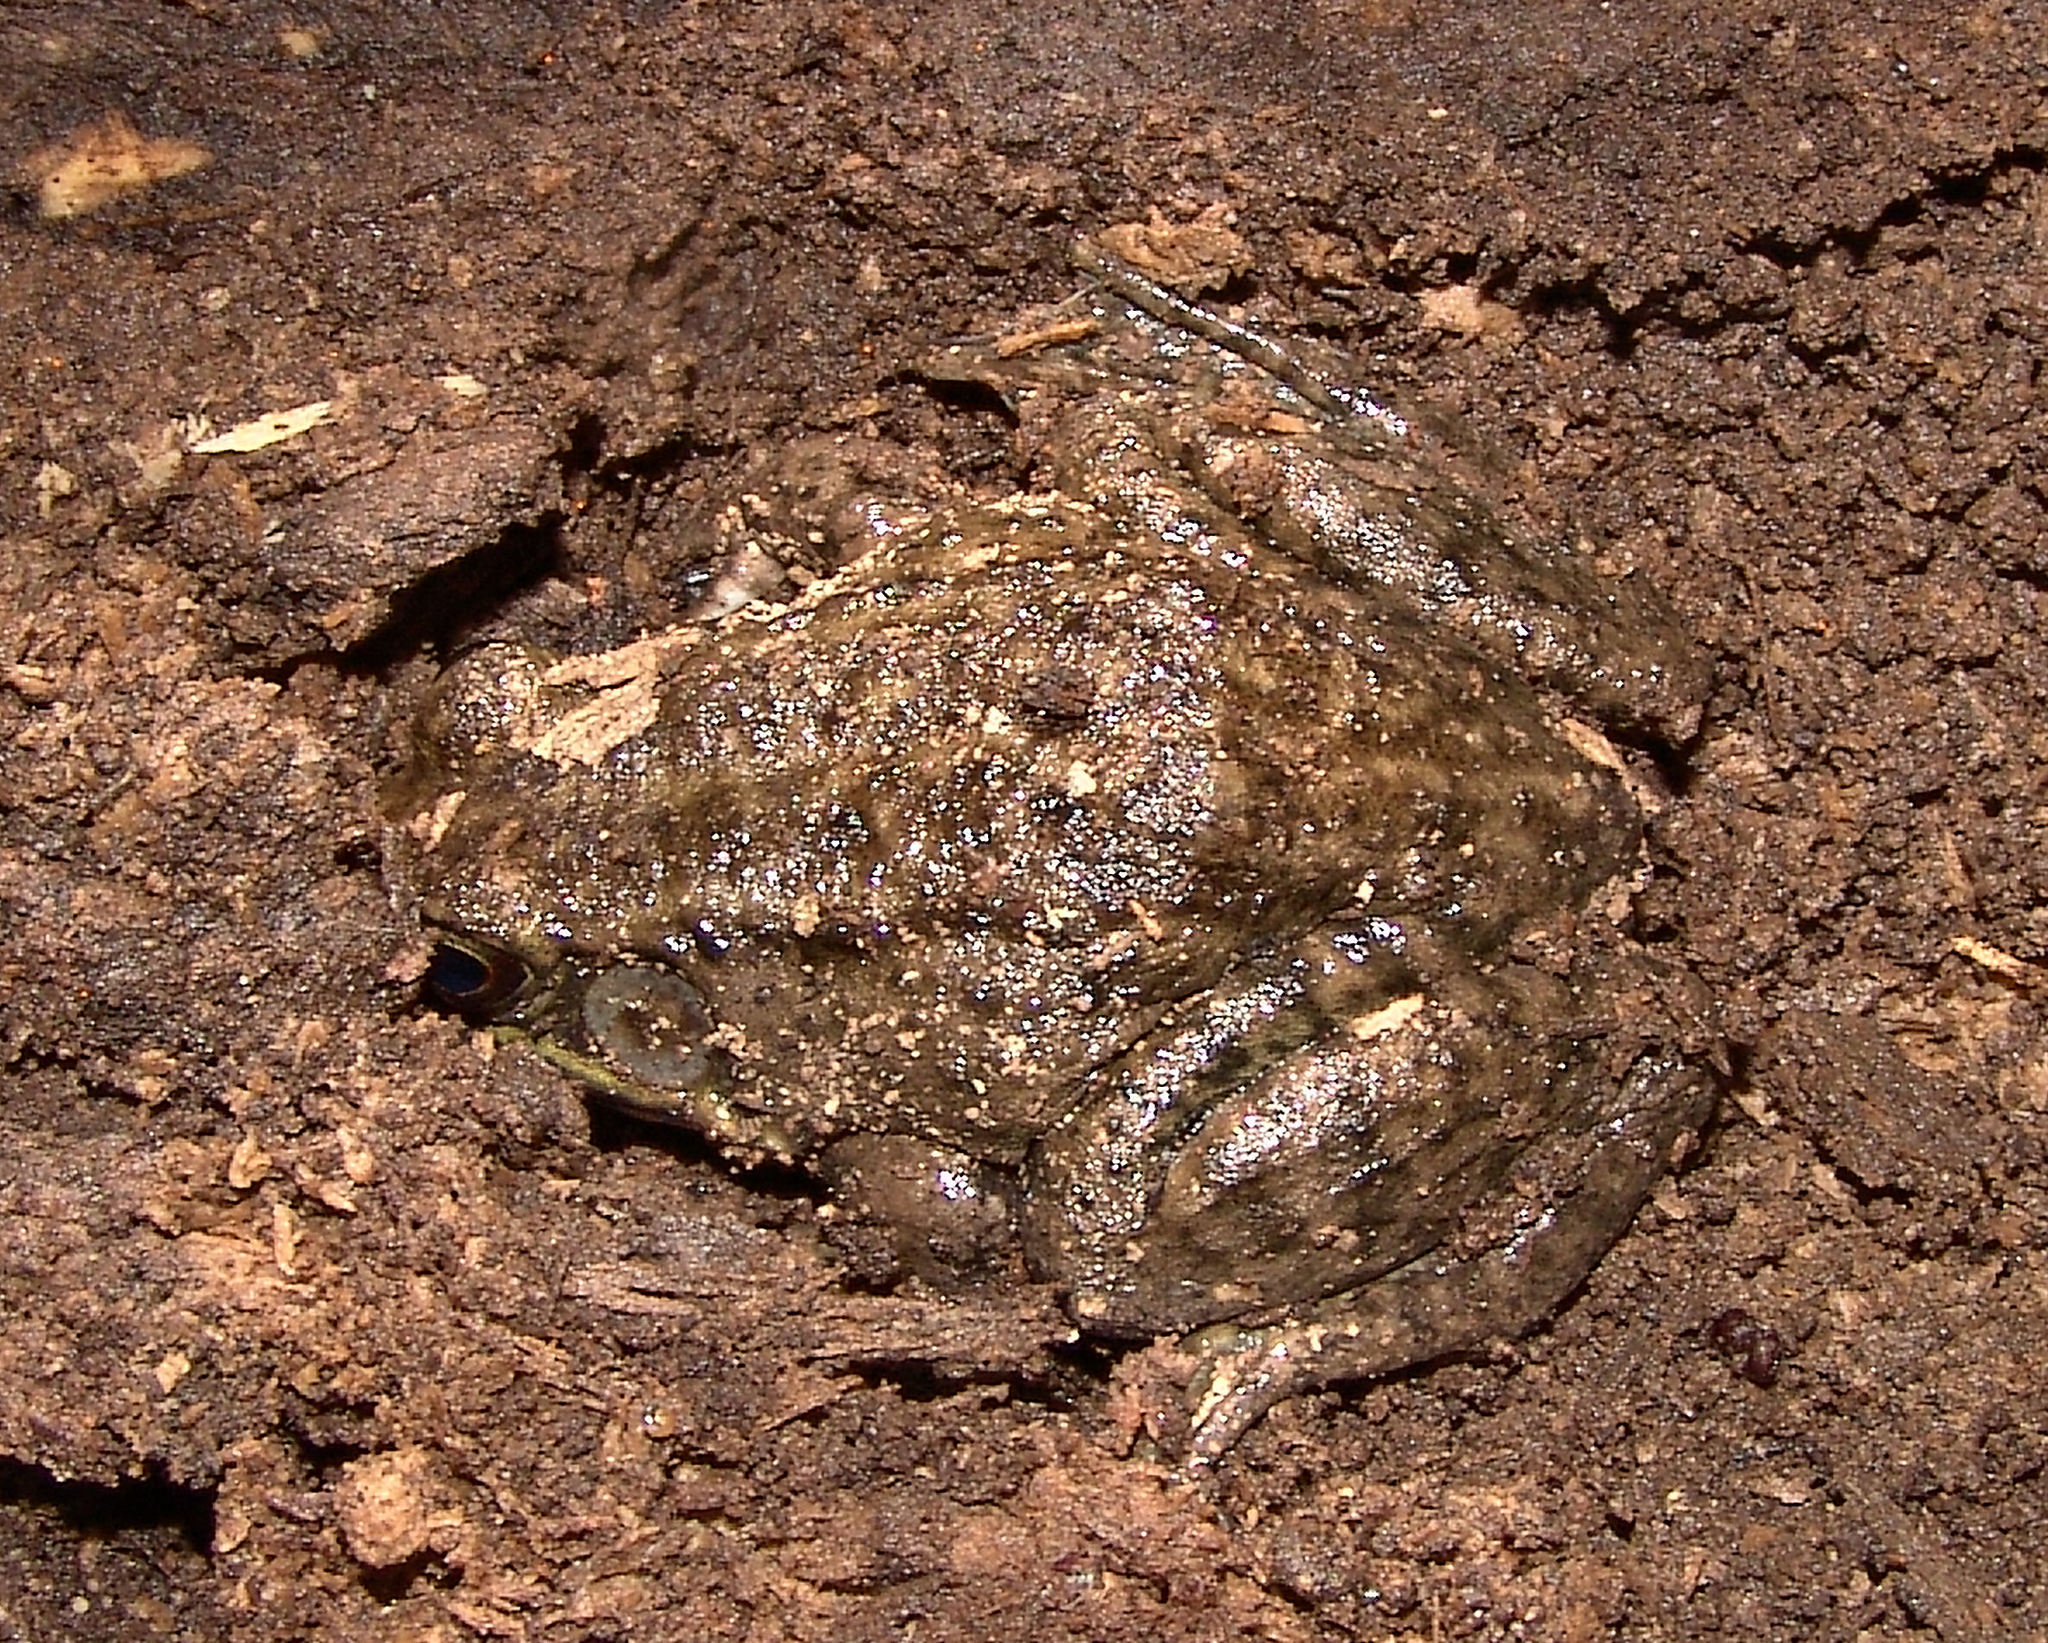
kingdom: Animalia
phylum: Chordata
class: Amphibia
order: Anura
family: Ranidae
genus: Lithobates
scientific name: Lithobates clamitans
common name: Green frog
